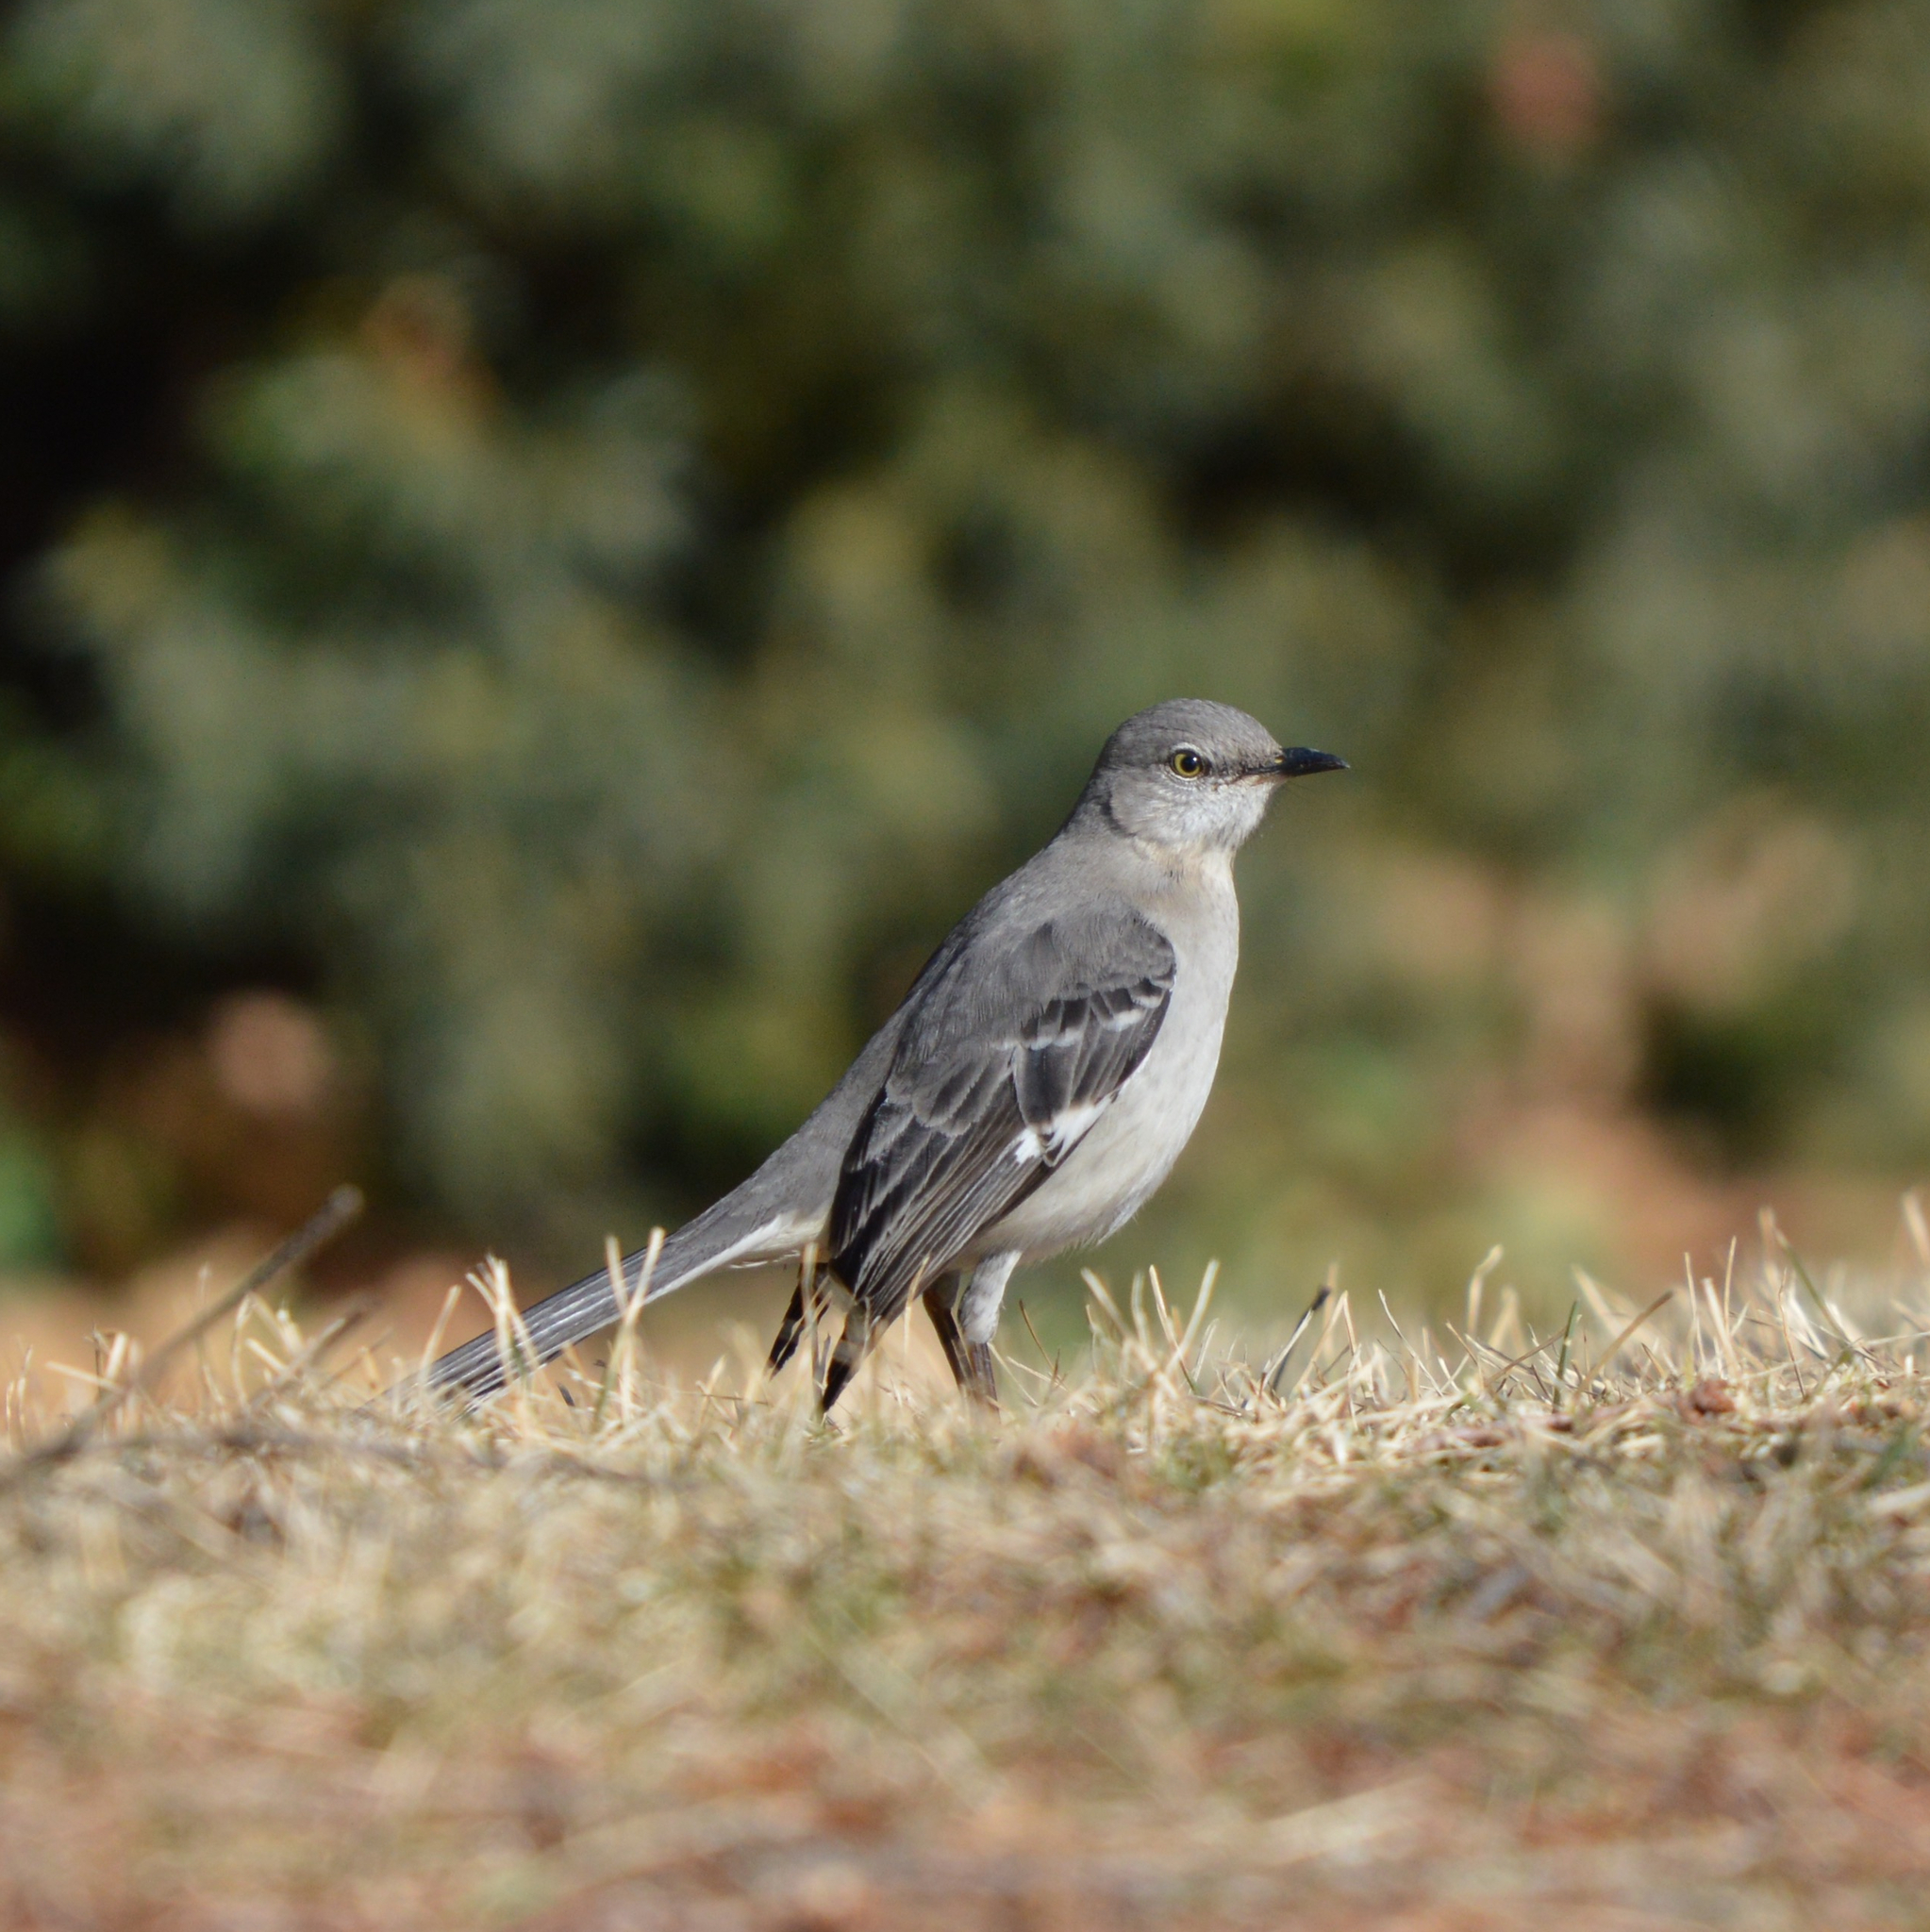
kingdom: Animalia
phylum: Chordata
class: Aves
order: Passeriformes
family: Mimidae
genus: Mimus
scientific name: Mimus polyglottos
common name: Northern mockingbird
